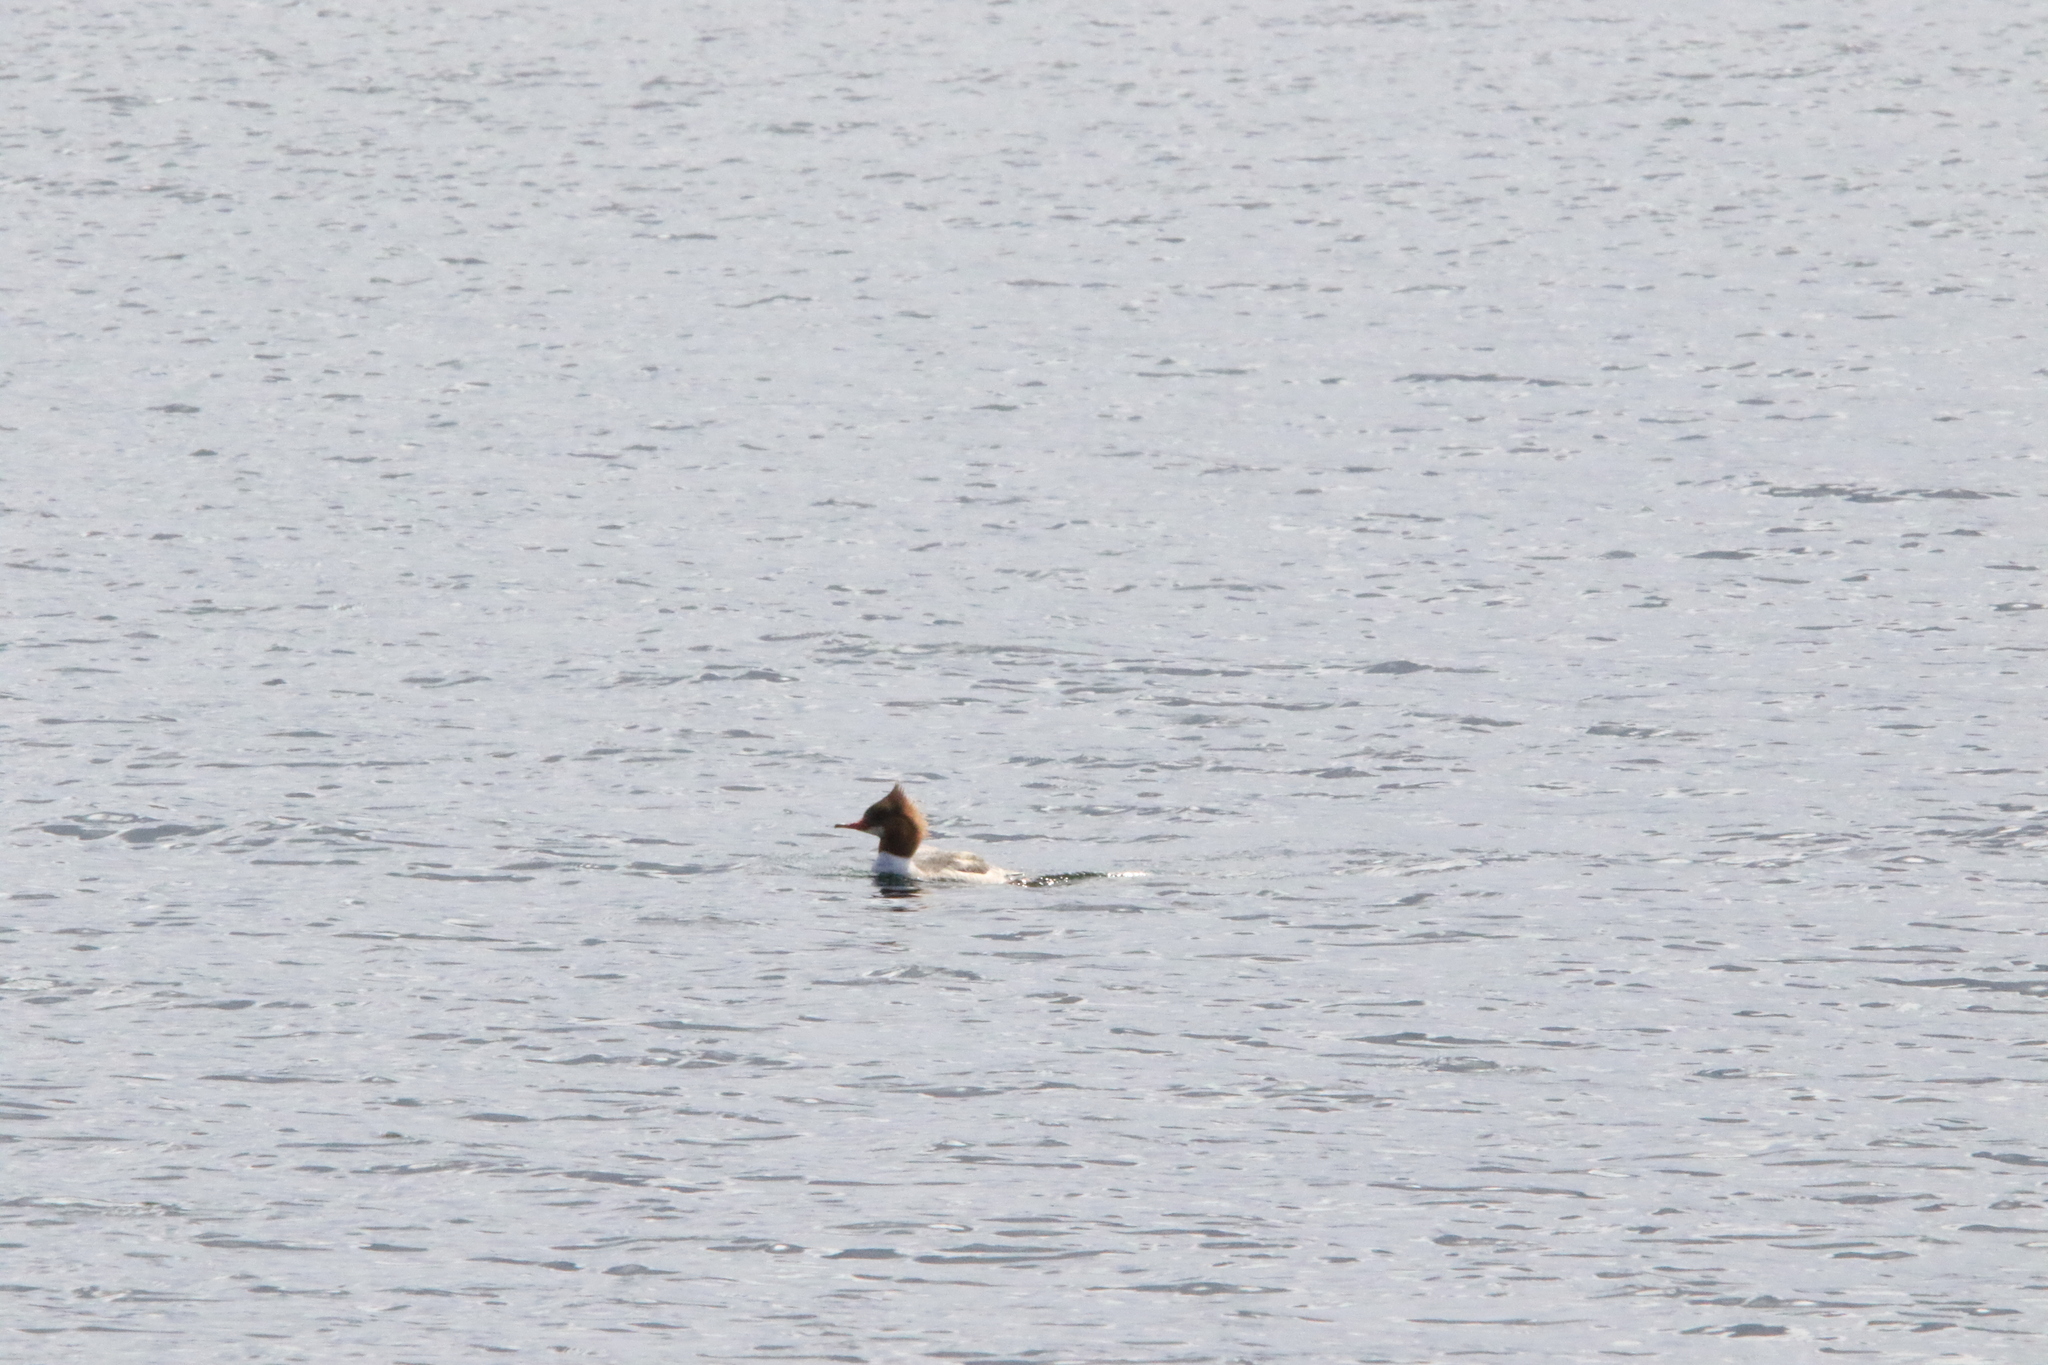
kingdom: Animalia
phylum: Chordata
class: Aves
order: Anseriformes
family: Anatidae
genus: Mergus
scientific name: Mergus merganser
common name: Common merganser
